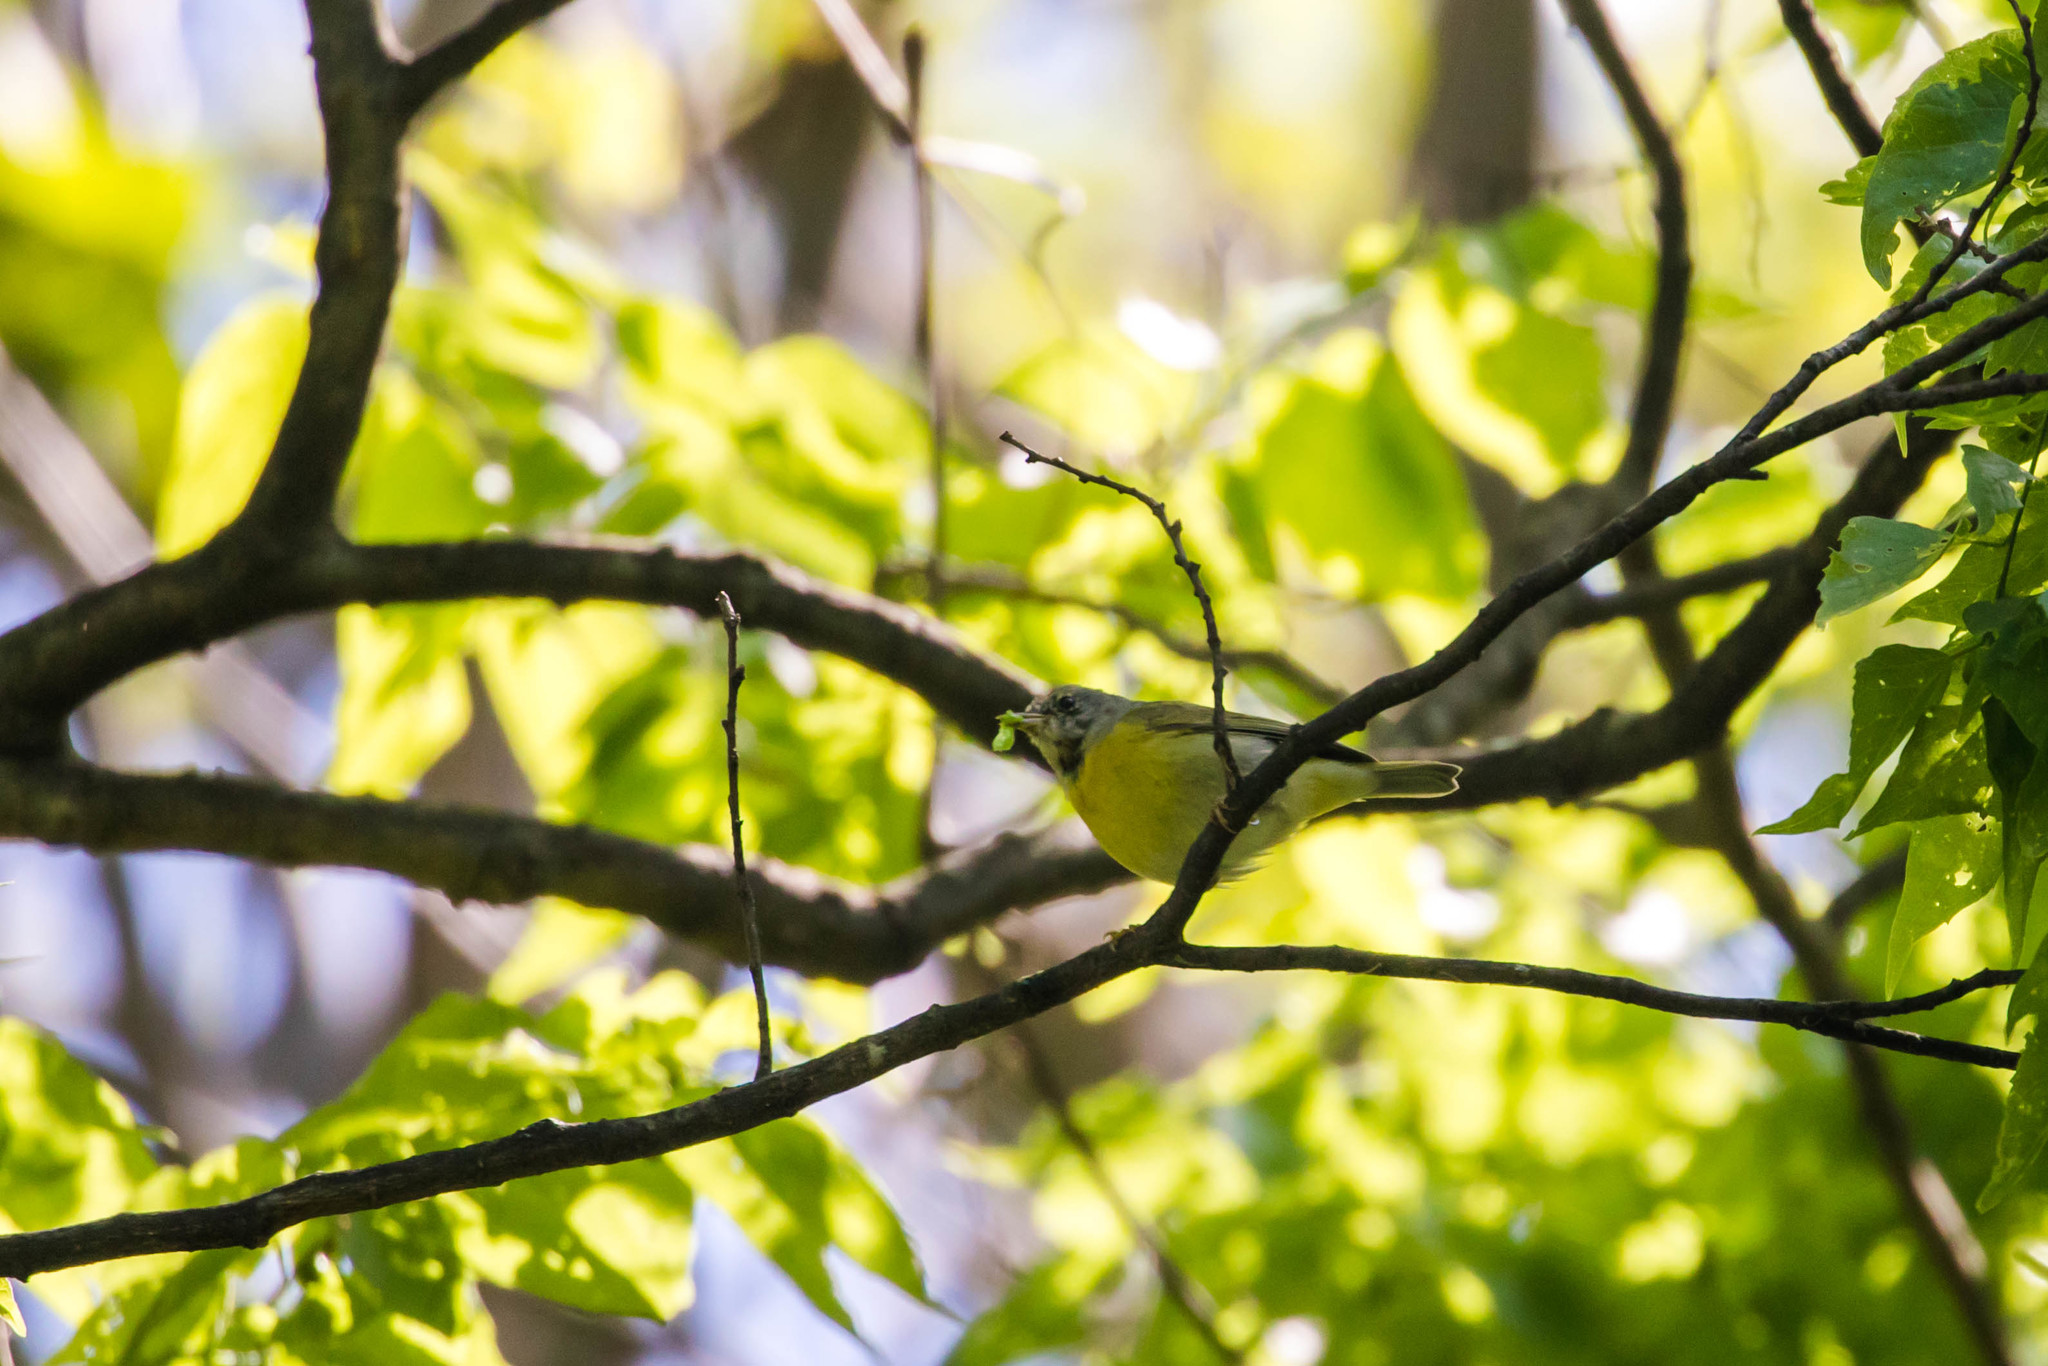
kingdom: Animalia
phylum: Chordata
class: Aves
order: Passeriformes
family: Parulidae
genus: Geothlypis
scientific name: Geothlypis philadelphia
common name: Mourning warbler
